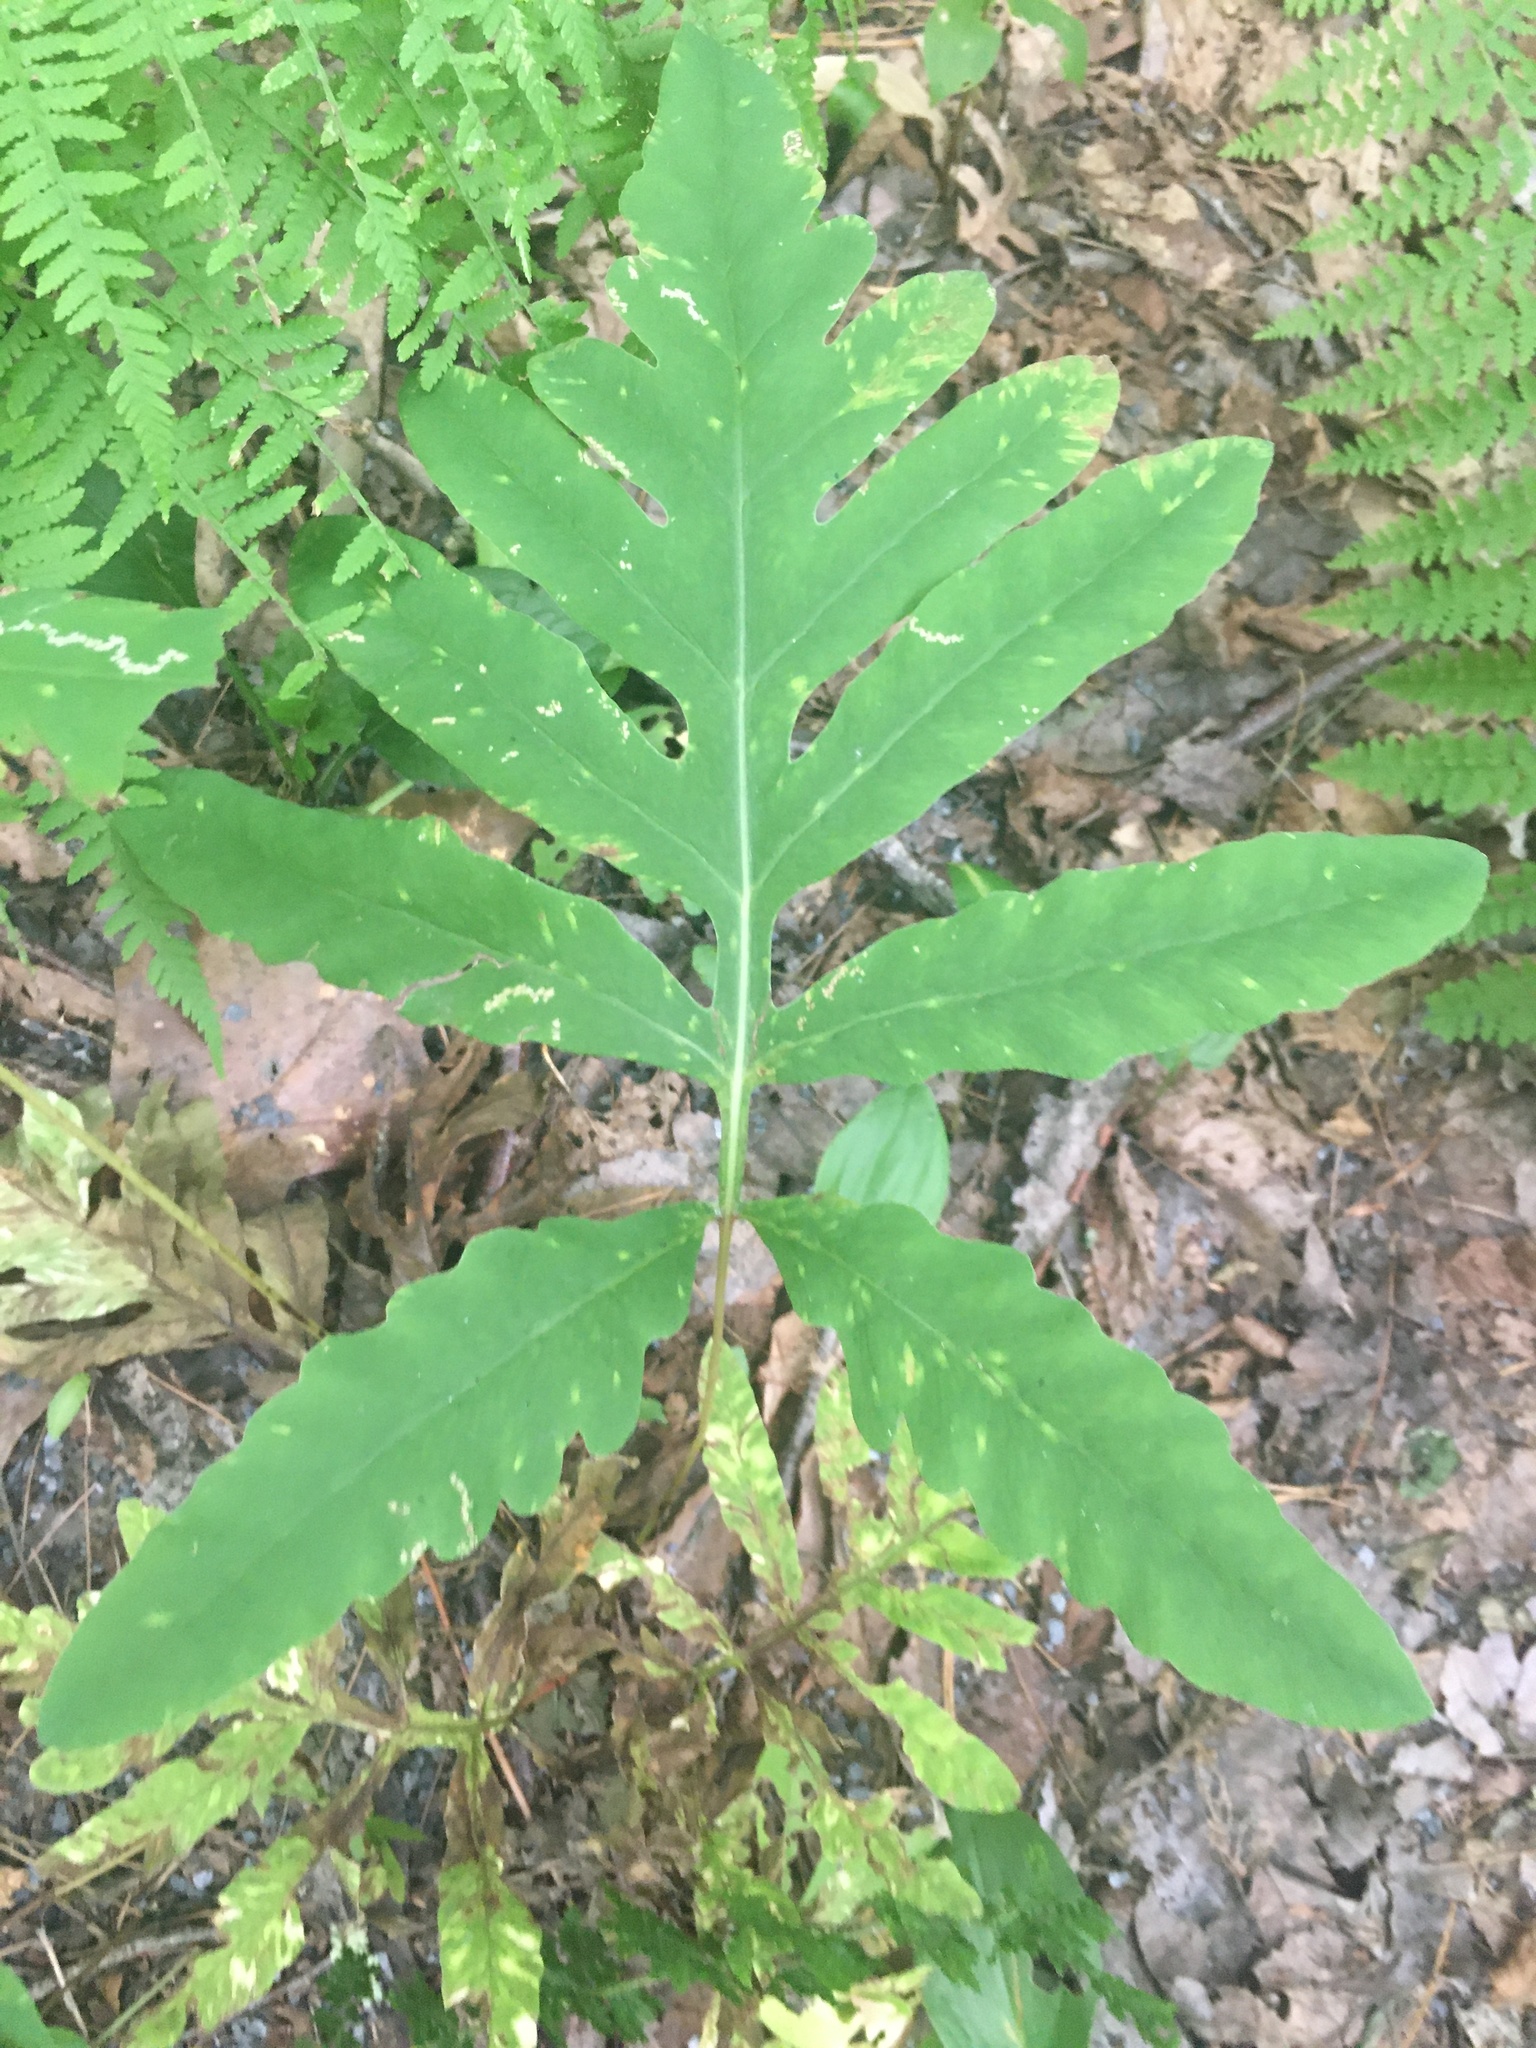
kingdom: Plantae
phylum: Tracheophyta
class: Polypodiopsida
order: Polypodiales
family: Onocleaceae
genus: Onoclea
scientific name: Onoclea sensibilis
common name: Sensitive fern
